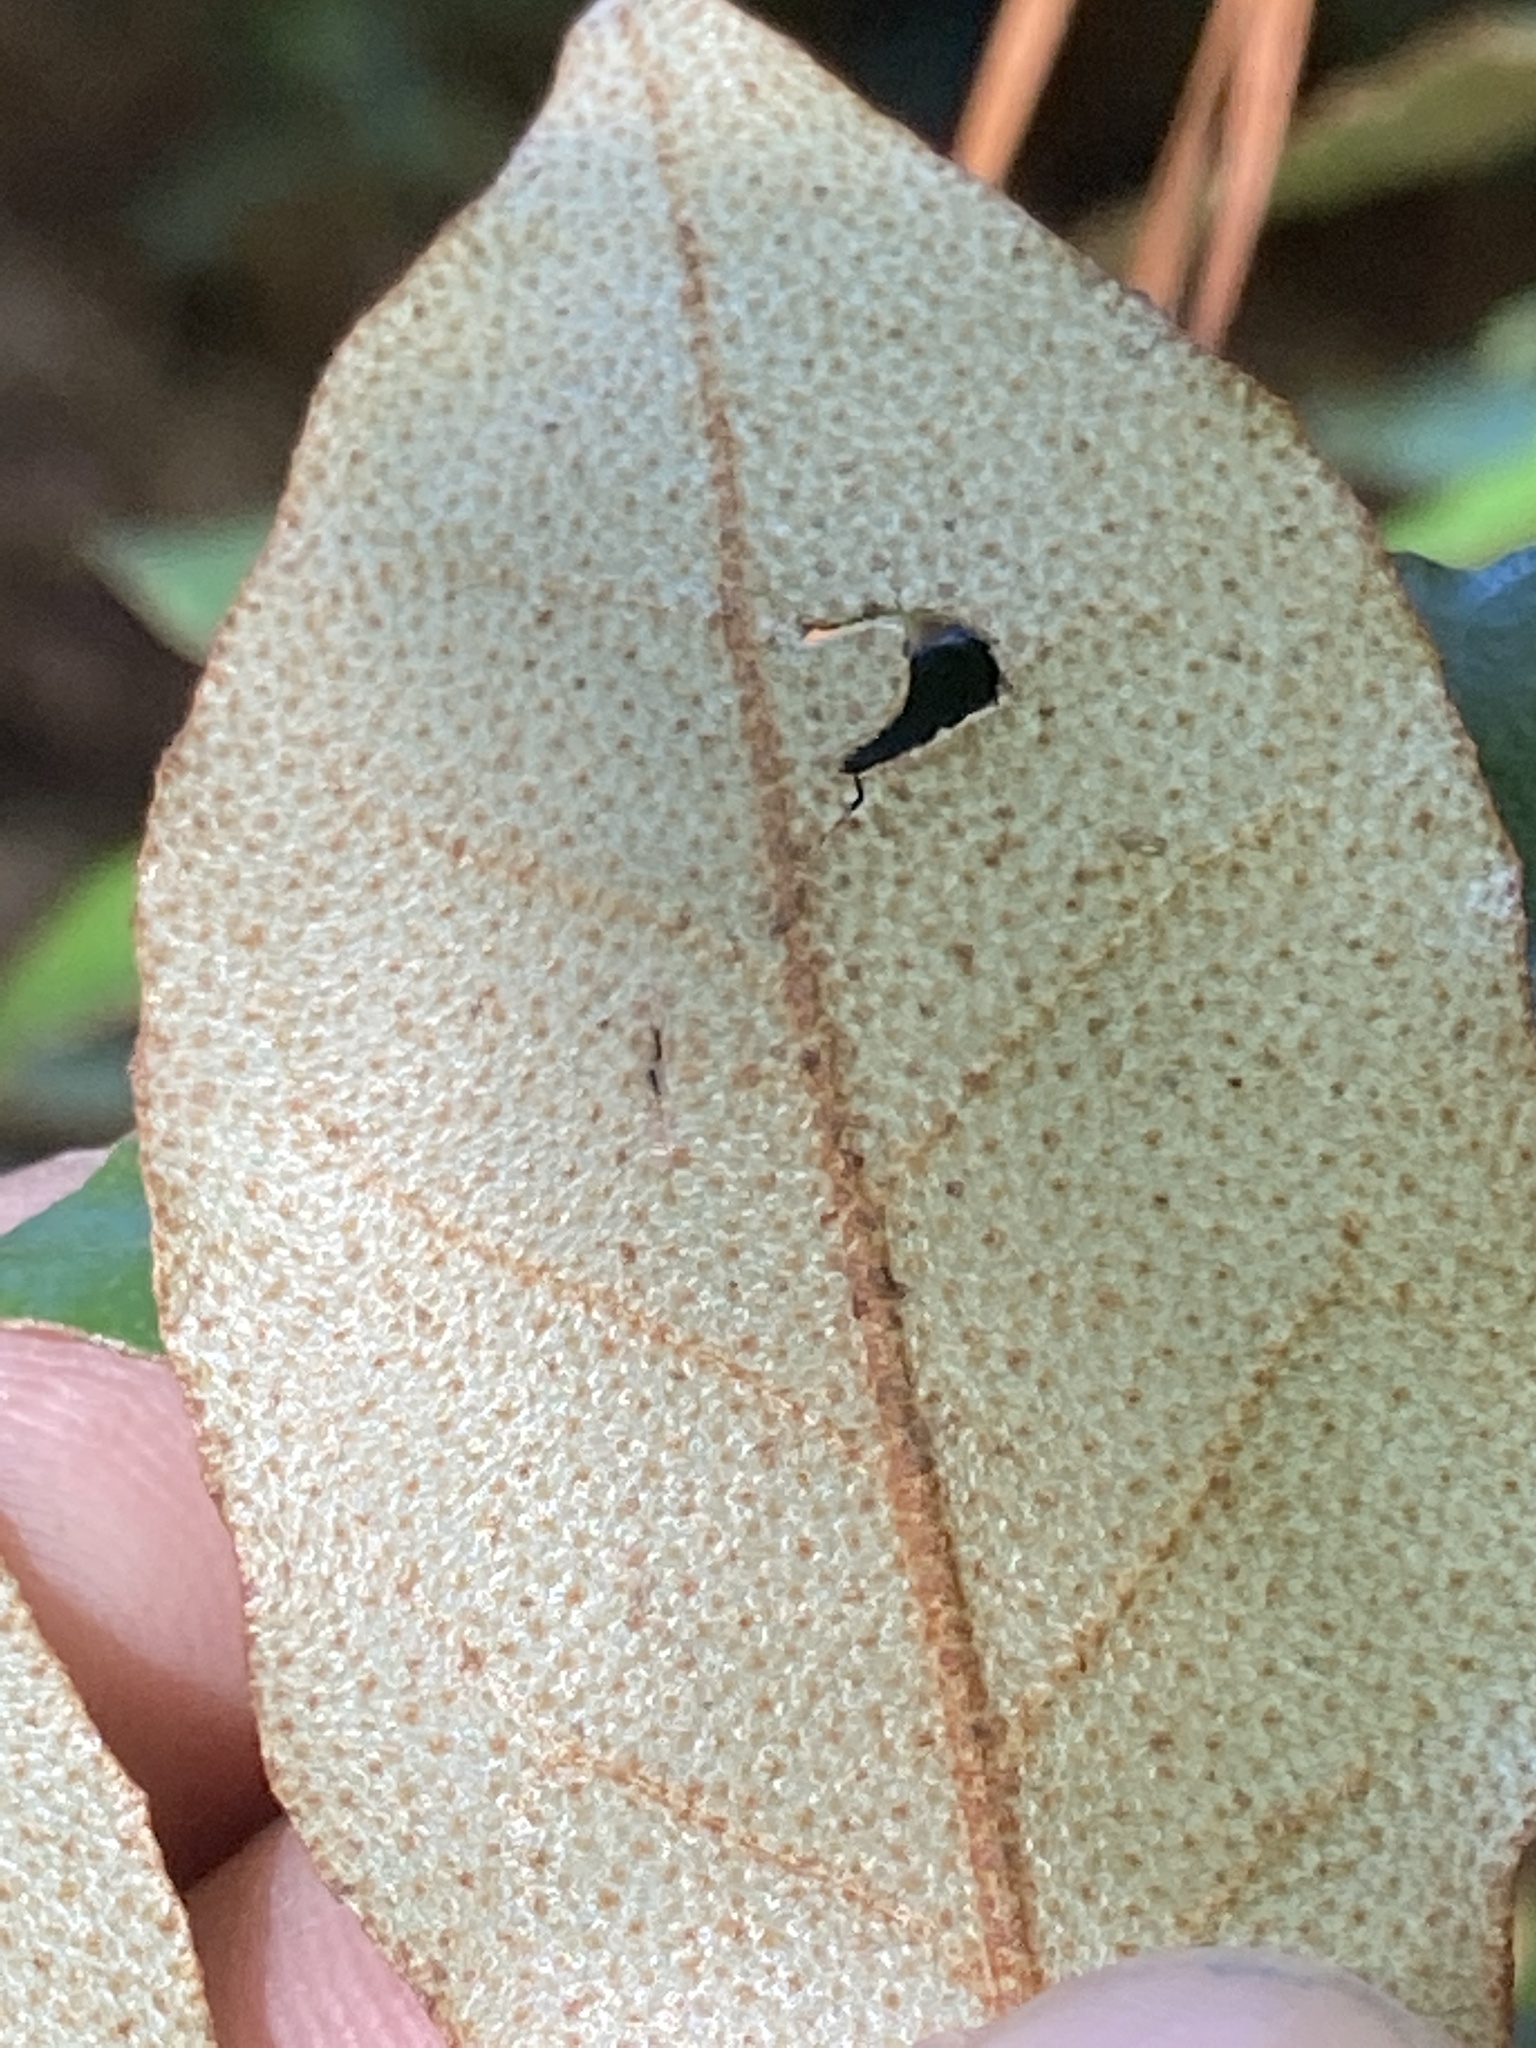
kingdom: Plantae
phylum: Tracheophyta
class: Magnoliopsida
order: Rosales
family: Elaeagnaceae
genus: Elaeagnus
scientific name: Elaeagnus pungens
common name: Spiny oleaster
